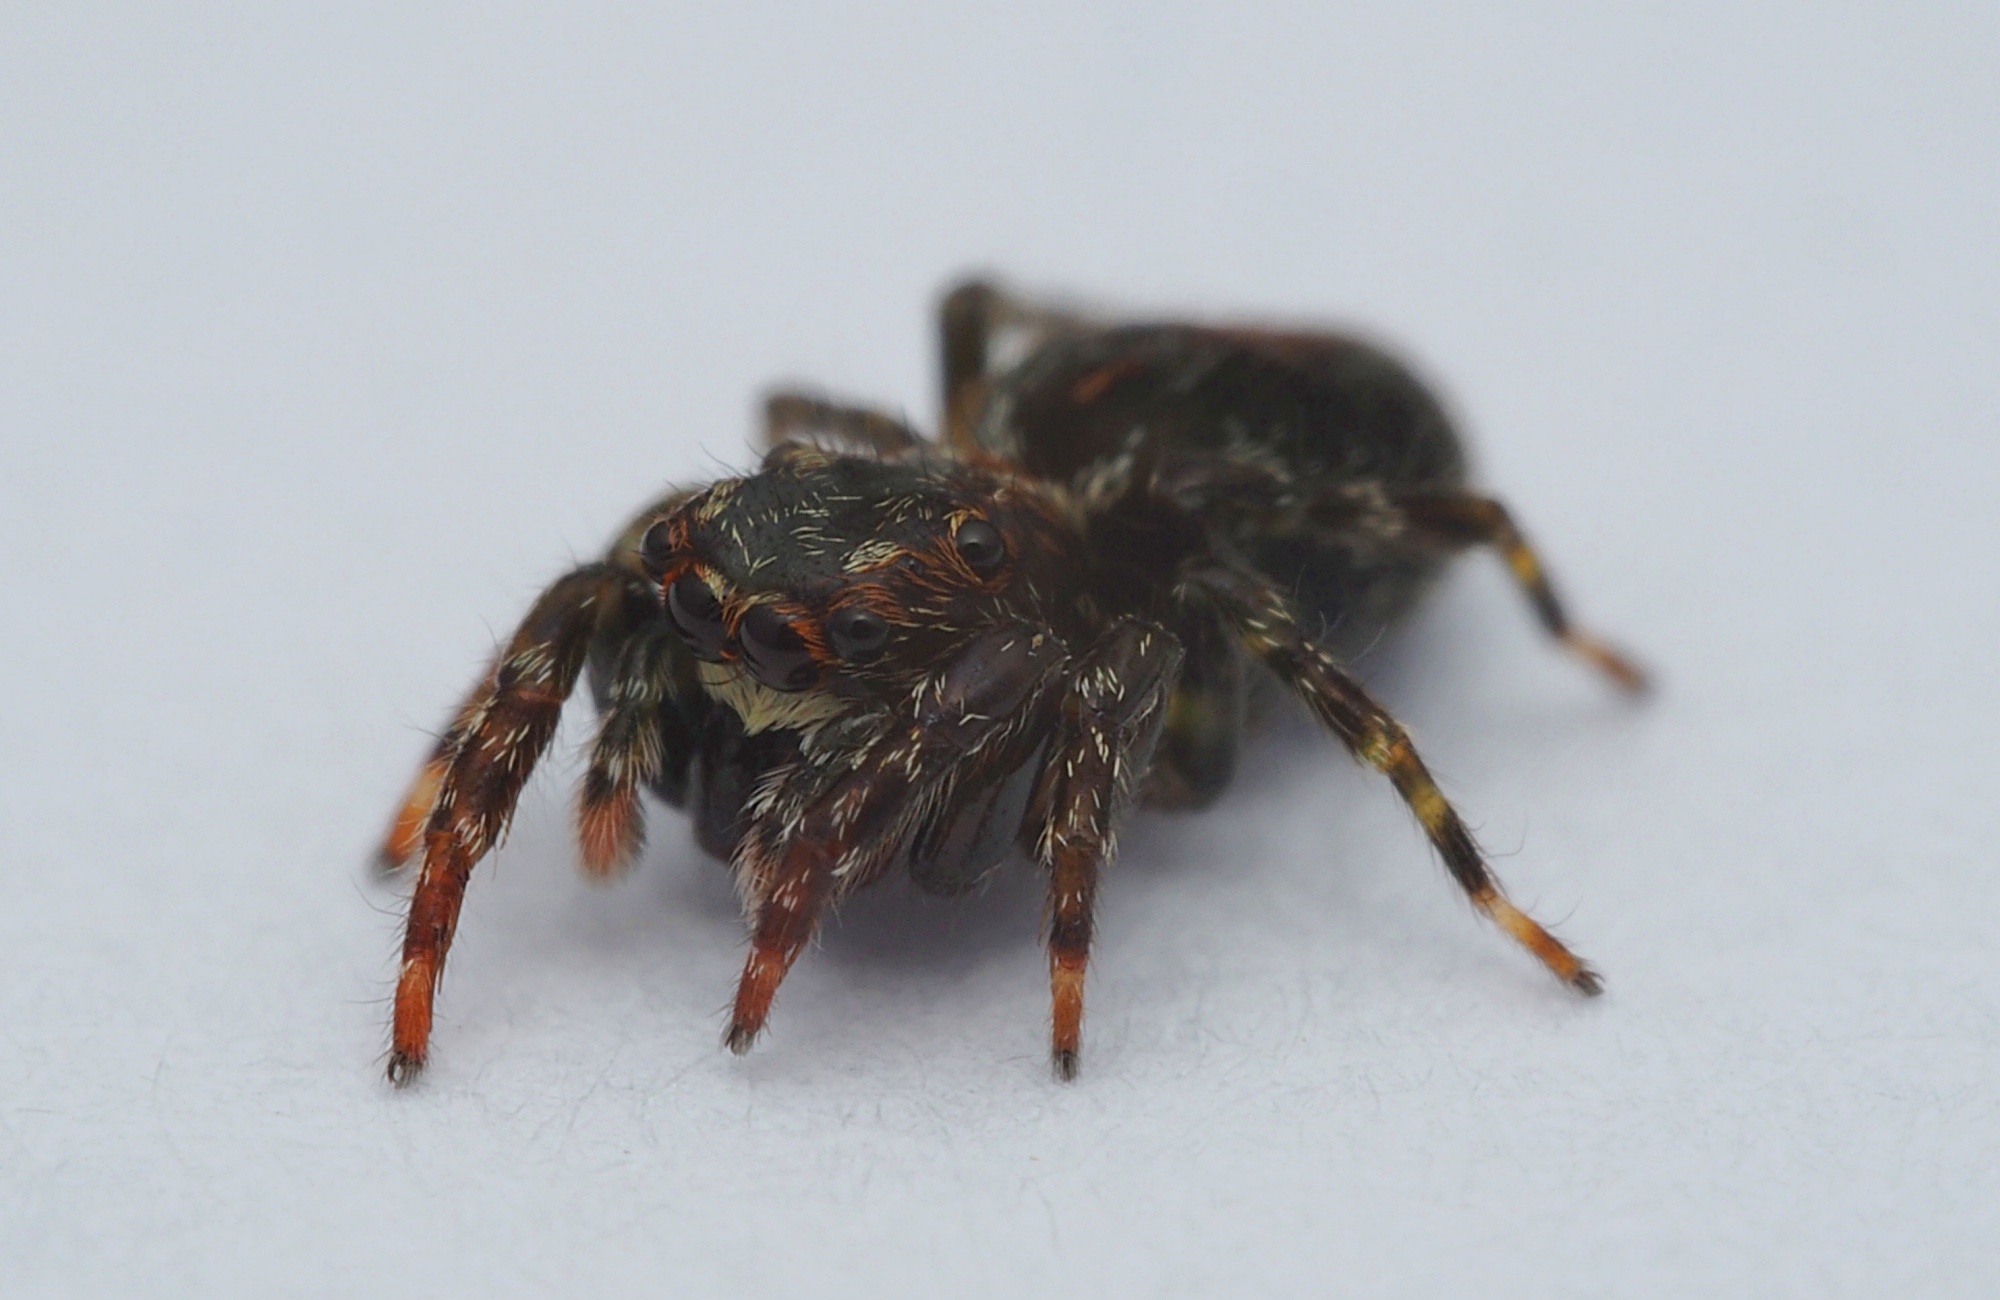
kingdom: Animalia
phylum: Arthropoda
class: Arachnida
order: Araneae
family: Salticidae
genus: Hinewaia
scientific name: Hinewaia embolica
